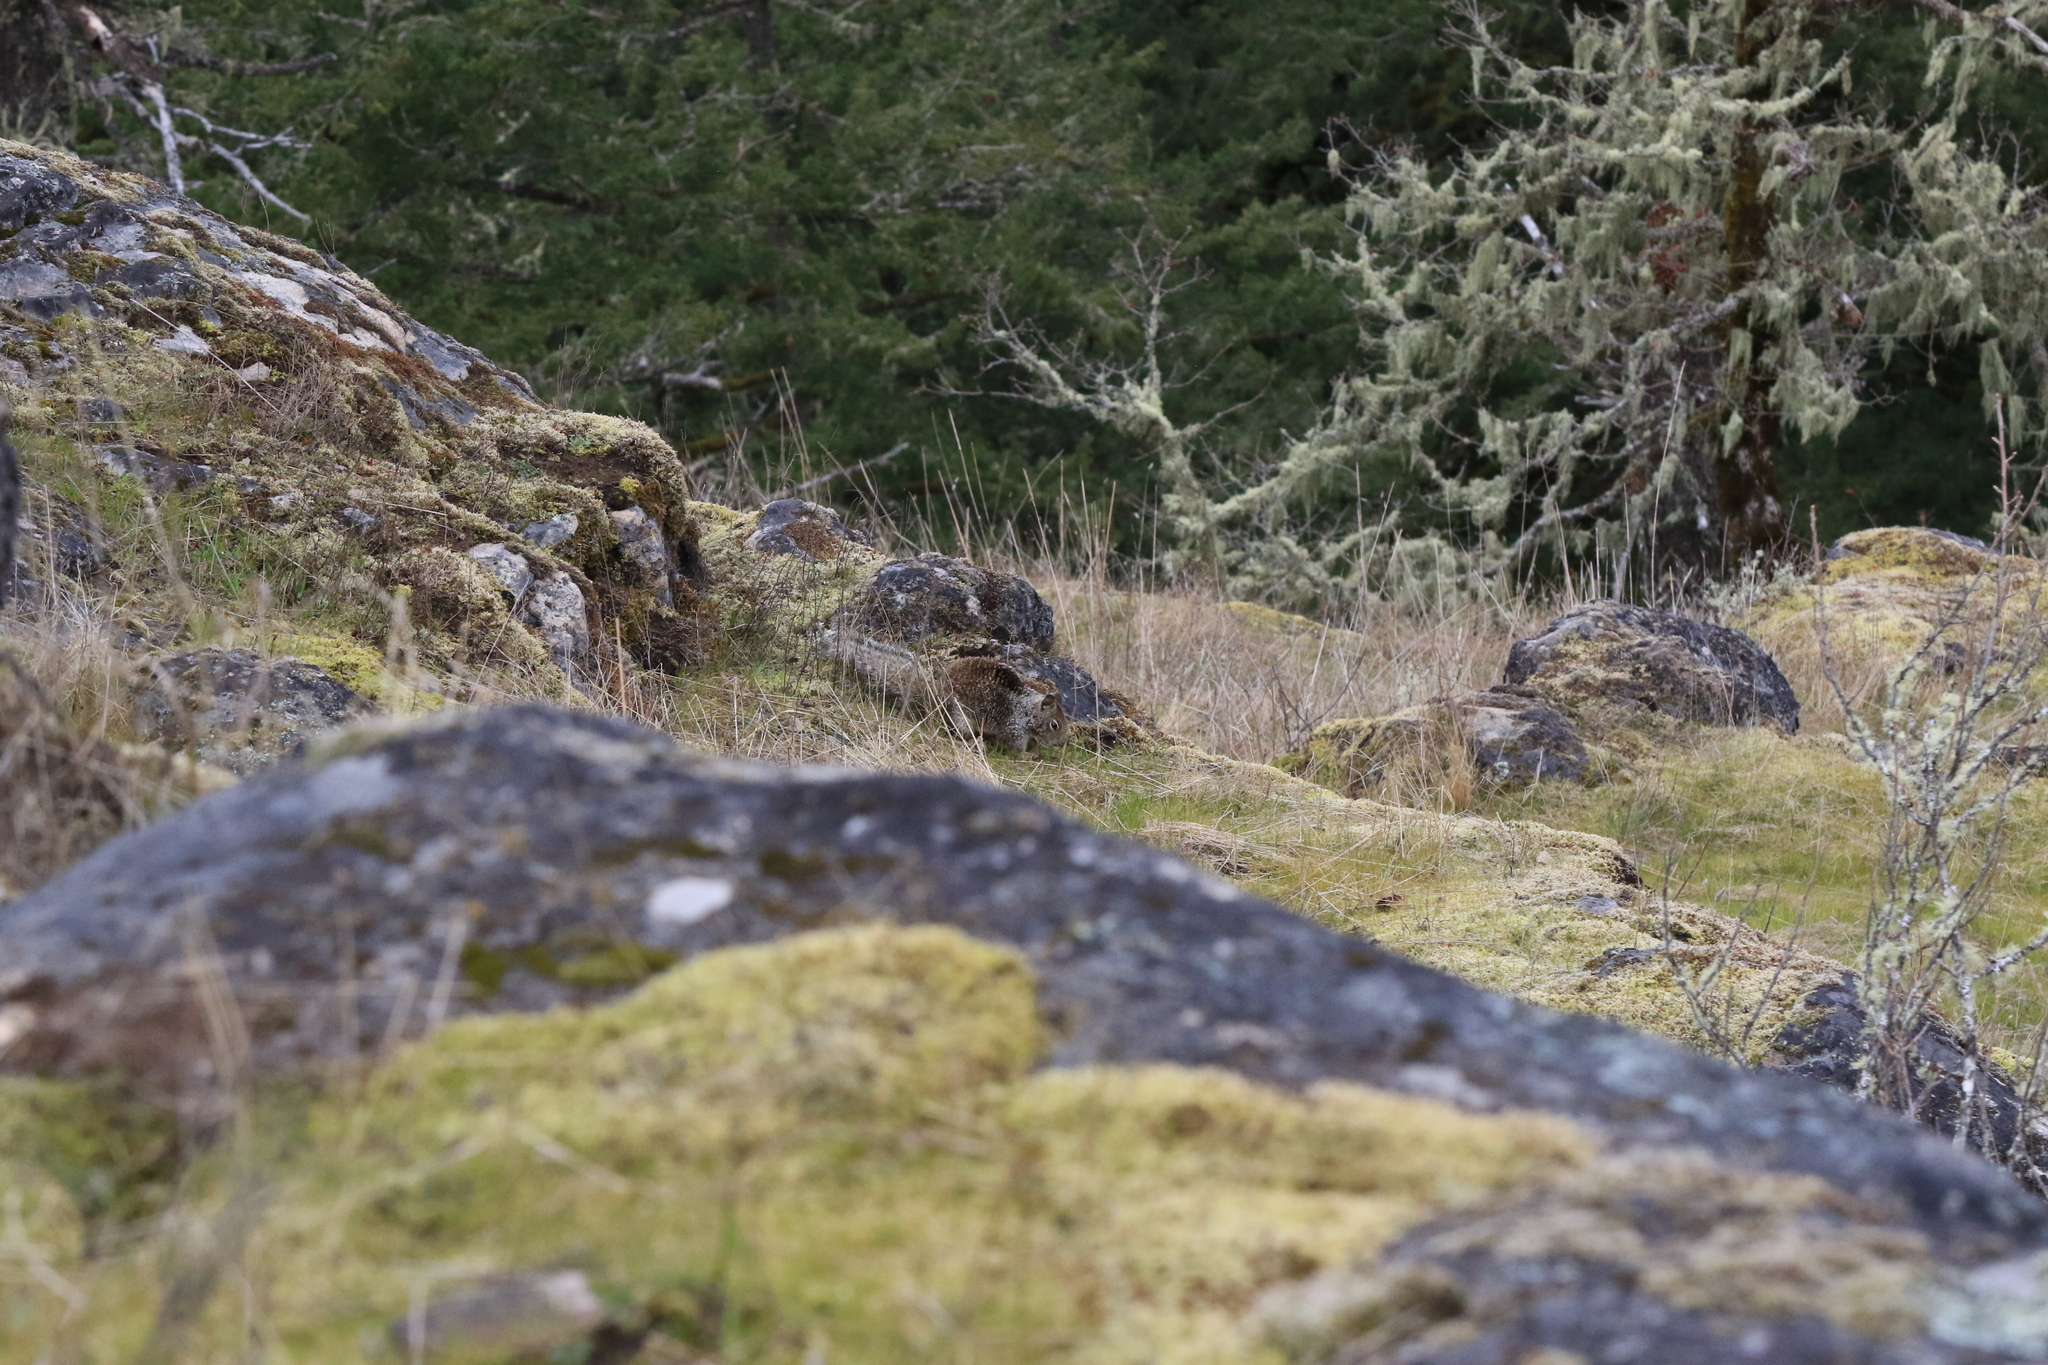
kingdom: Animalia
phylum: Chordata
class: Mammalia
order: Rodentia
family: Sciuridae
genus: Otospermophilus
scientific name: Otospermophilus beecheyi
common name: California ground squirrel
